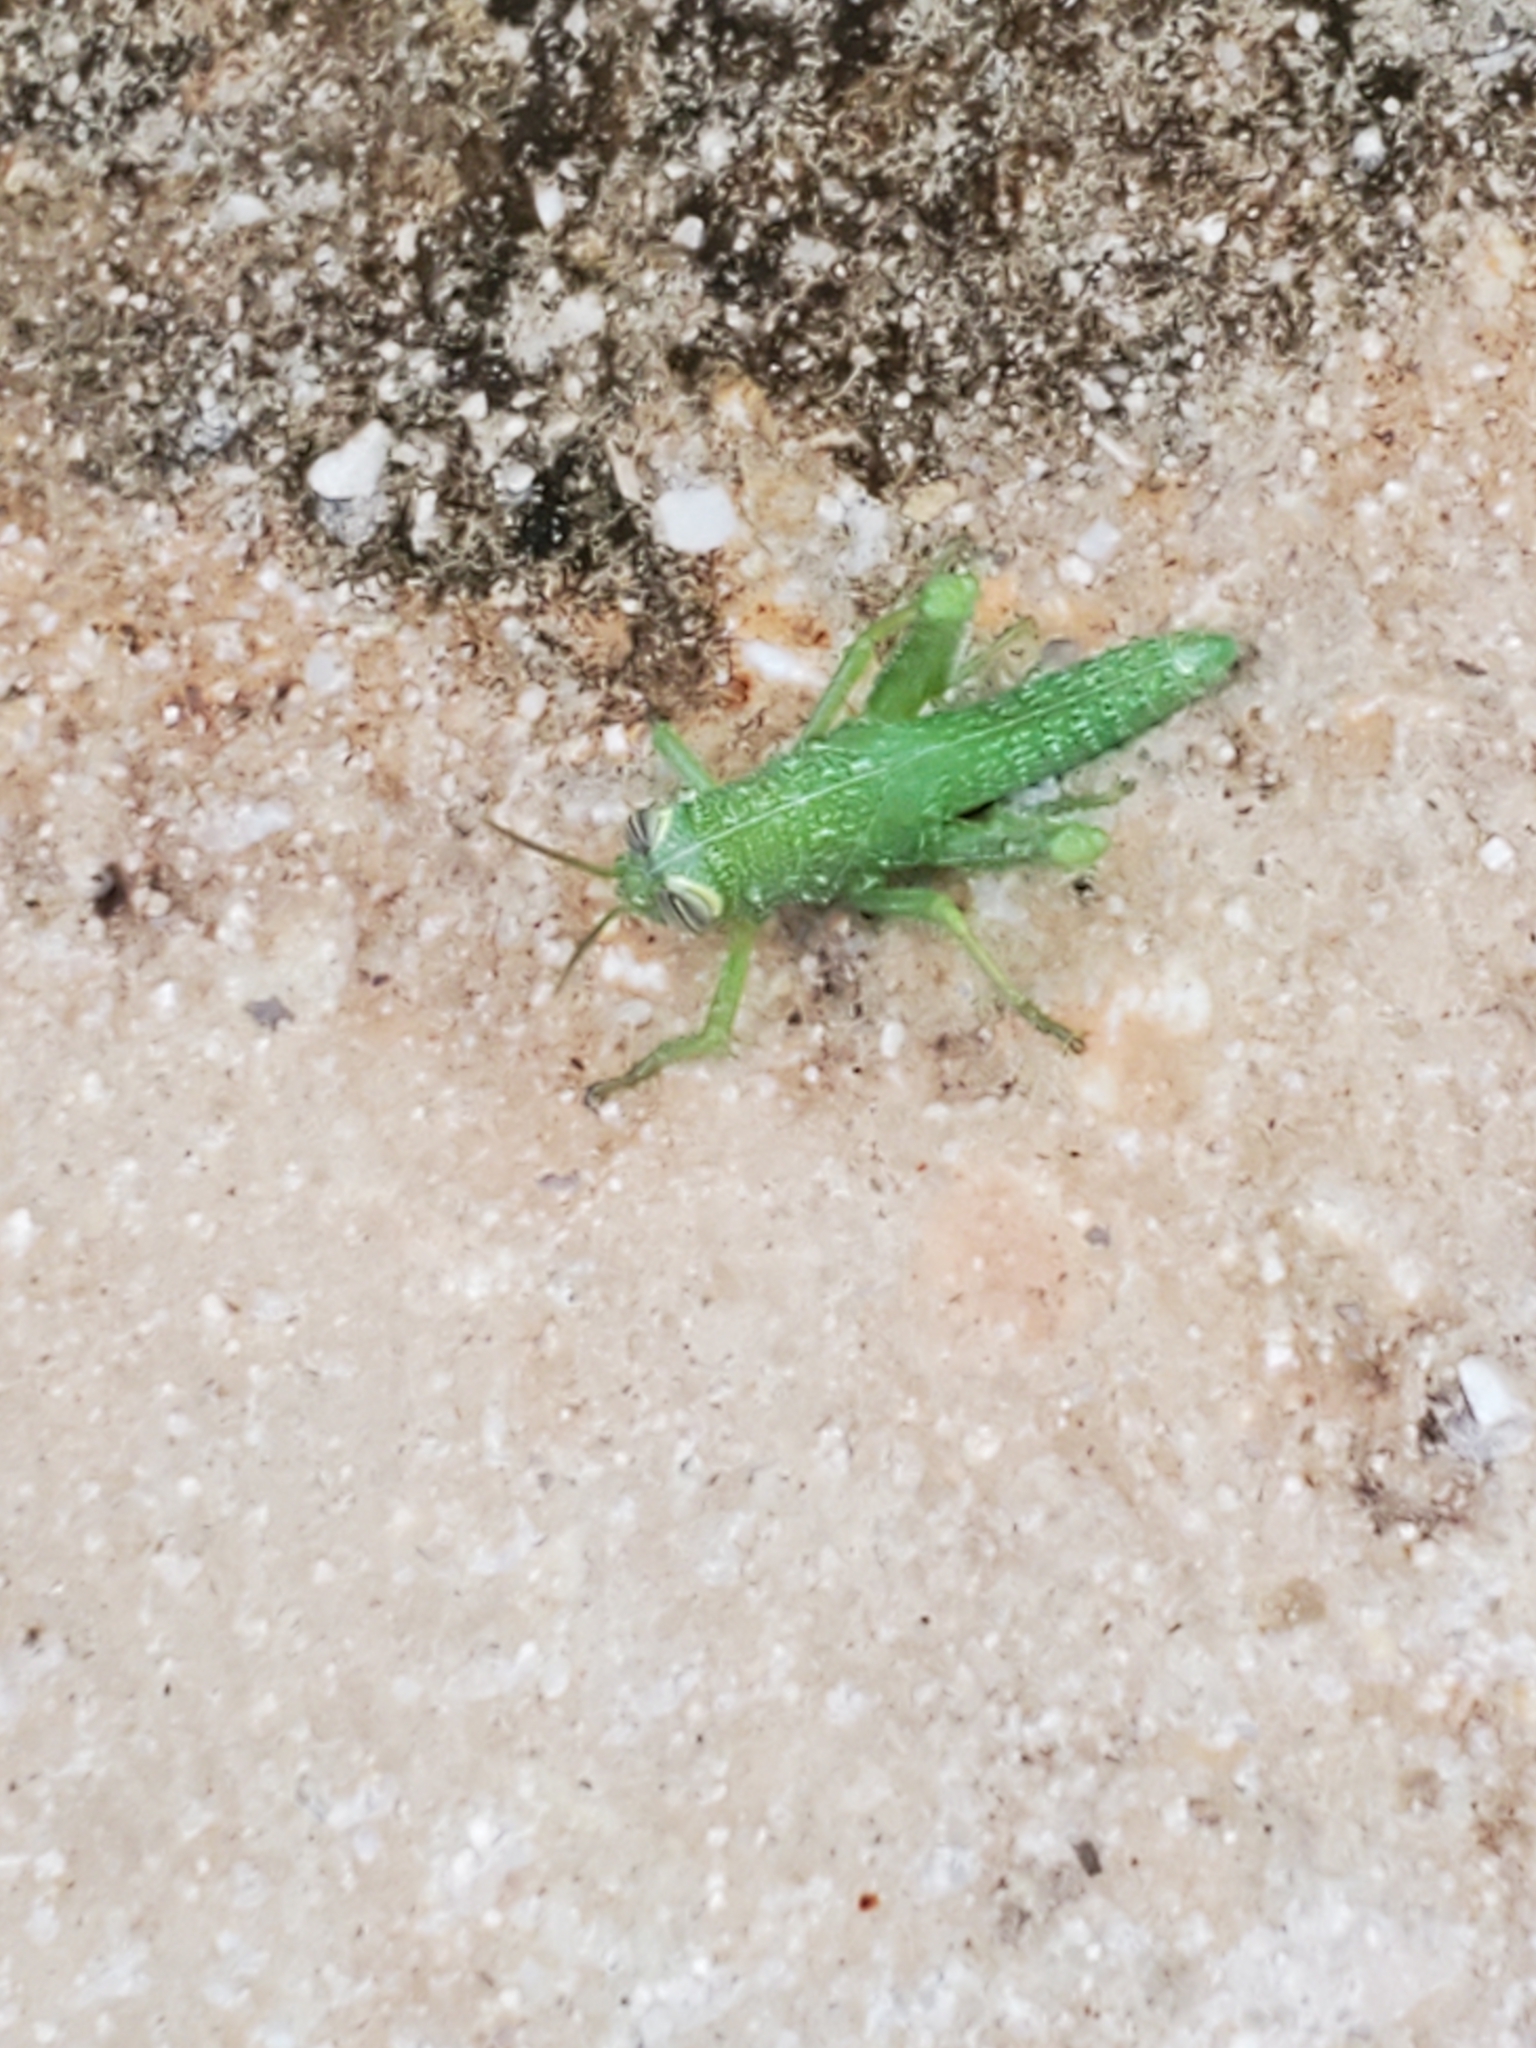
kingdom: Animalia
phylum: Arthropoda
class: Insecta
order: Orthoptera
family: Acrididae
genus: Schistocerca
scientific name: Schistocerca obscura
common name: Obscure bird grasshopper
